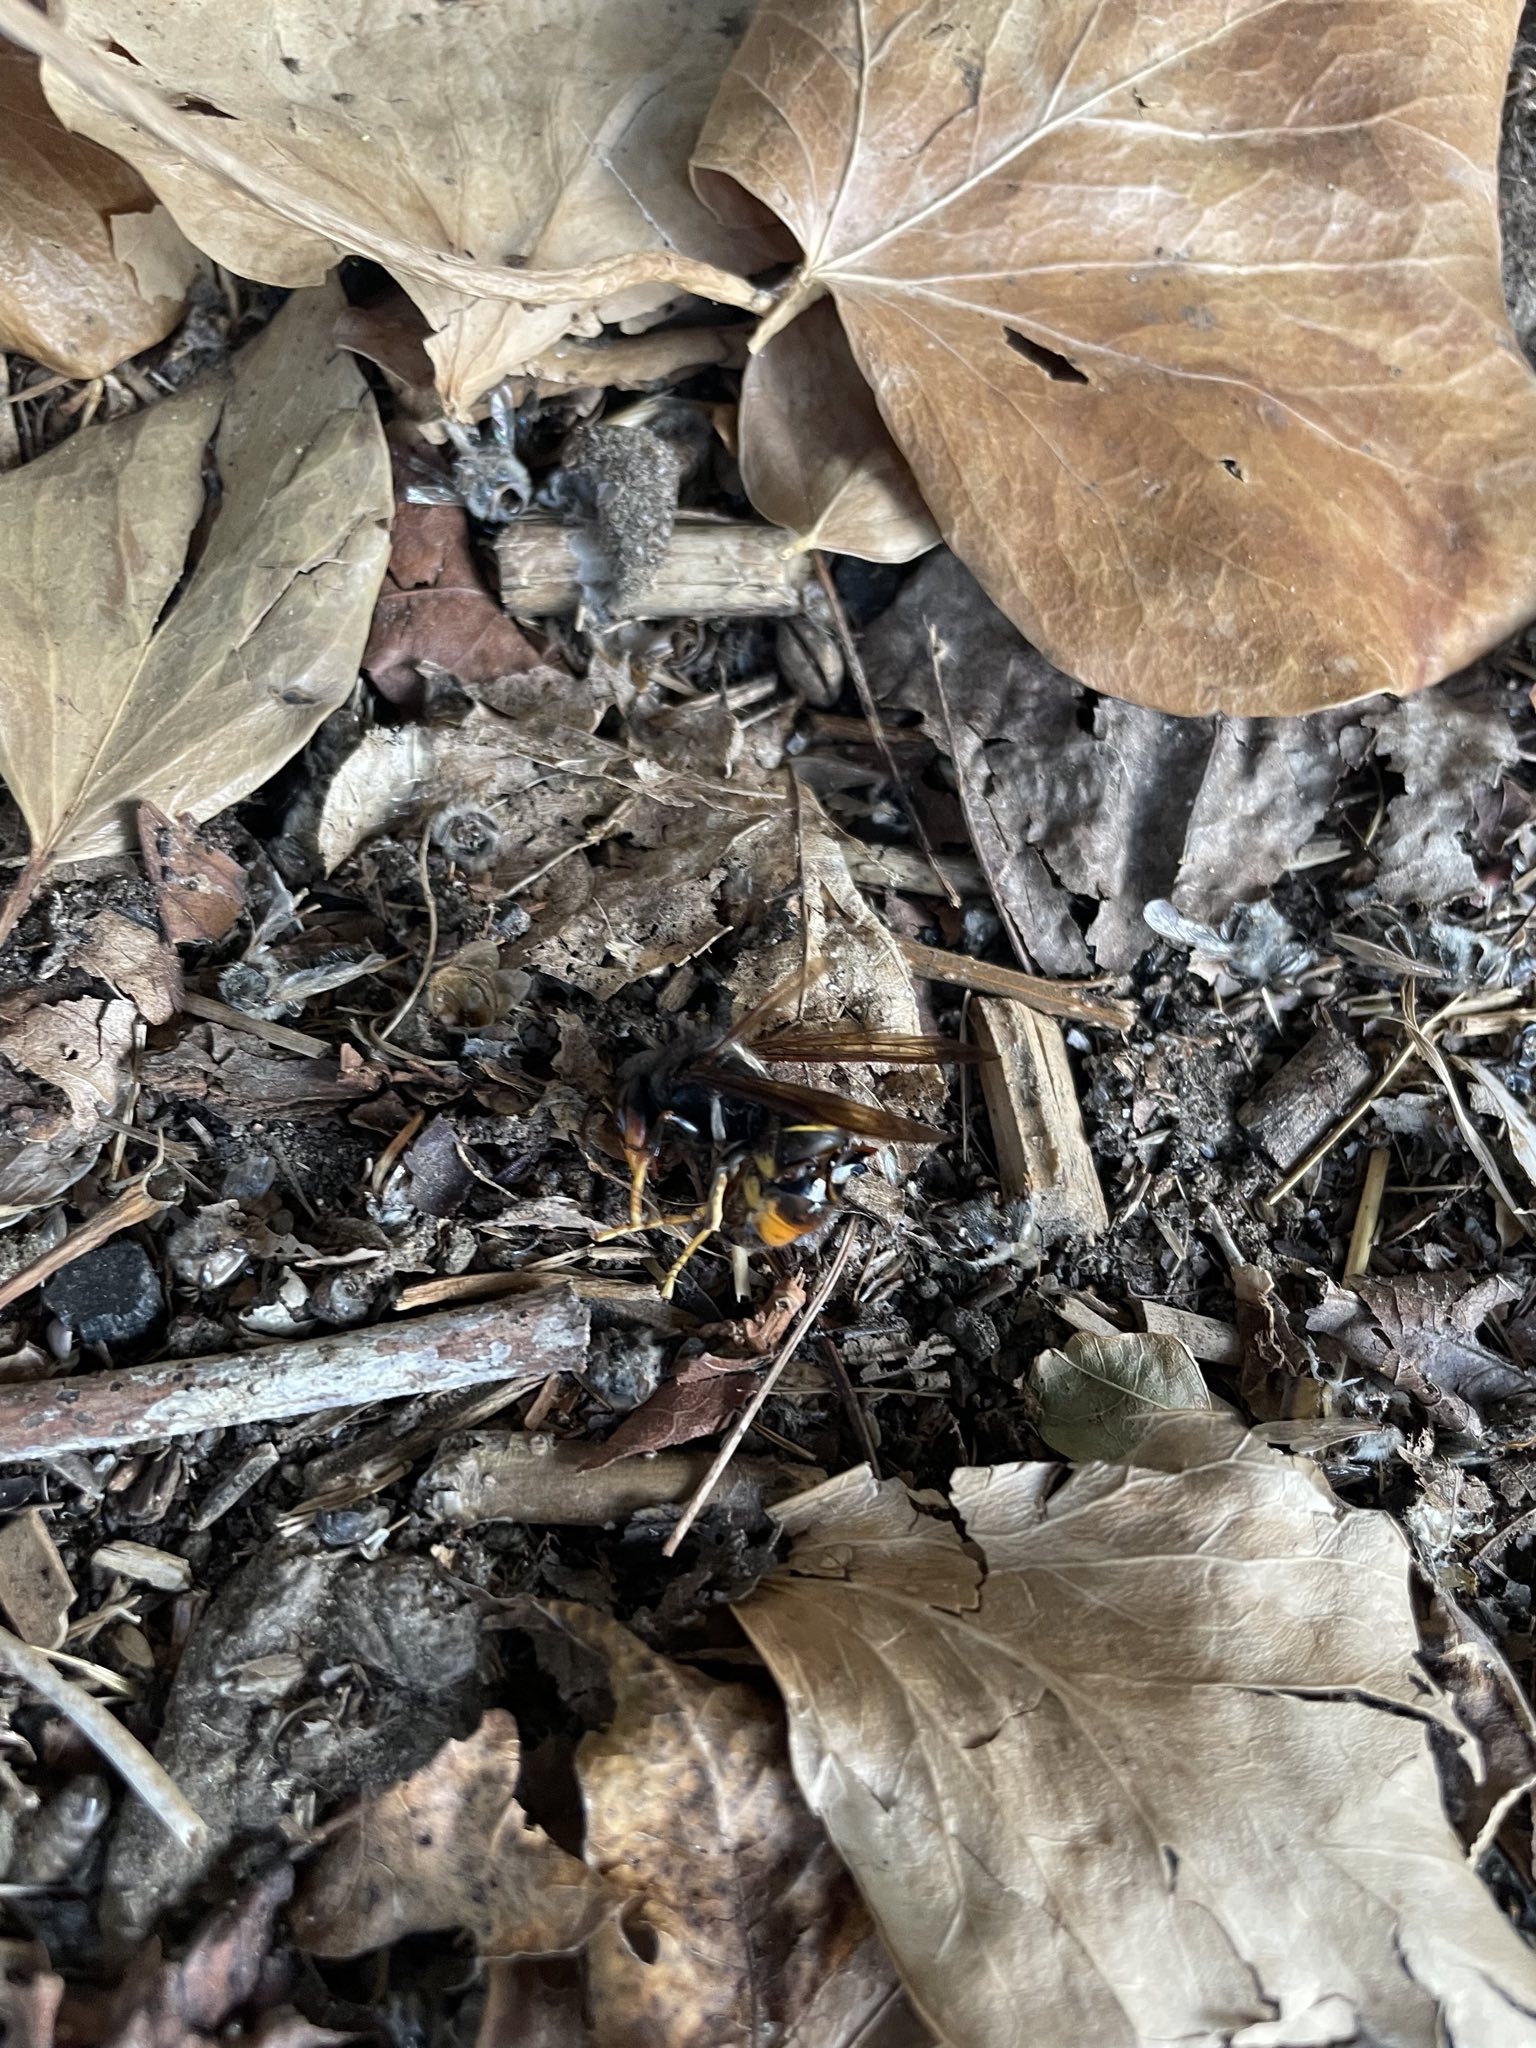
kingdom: Animalia
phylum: Arthropoda
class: Insecta
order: Hymenoptera
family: Vespidae
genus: Vespa
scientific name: Vespa velutina
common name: Asian hornet
